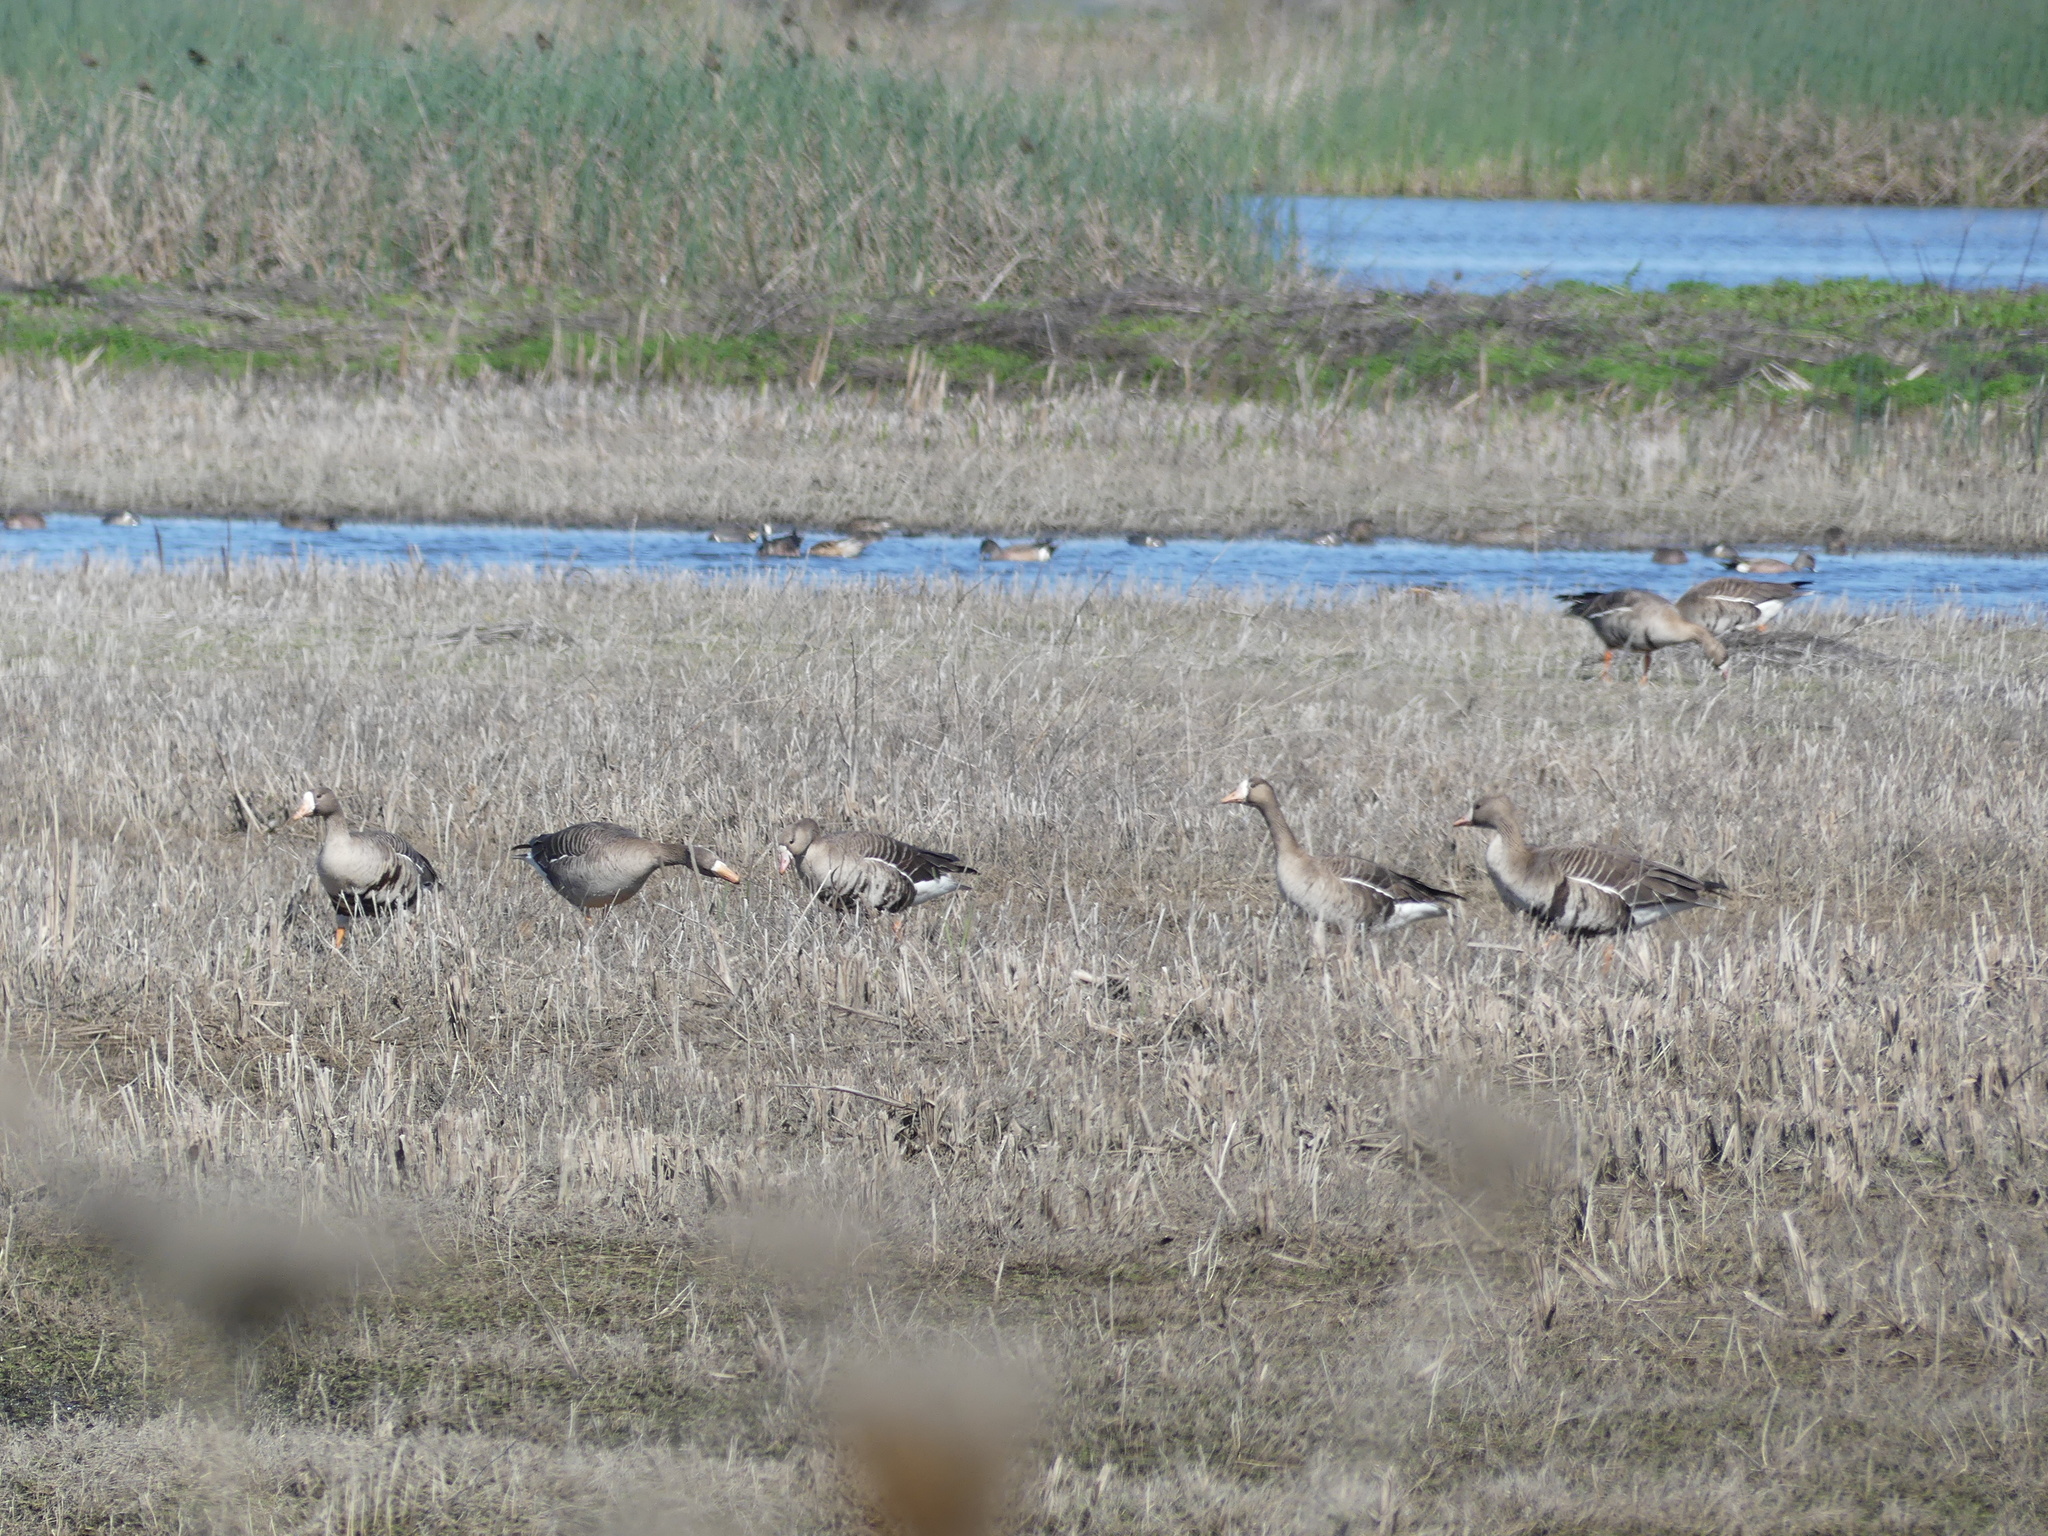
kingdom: Animalia
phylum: Chordata
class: Aves
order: Anseriformes
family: Anatidae
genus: Anser
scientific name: Anser albifrons
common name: Greater white-fronted goose
